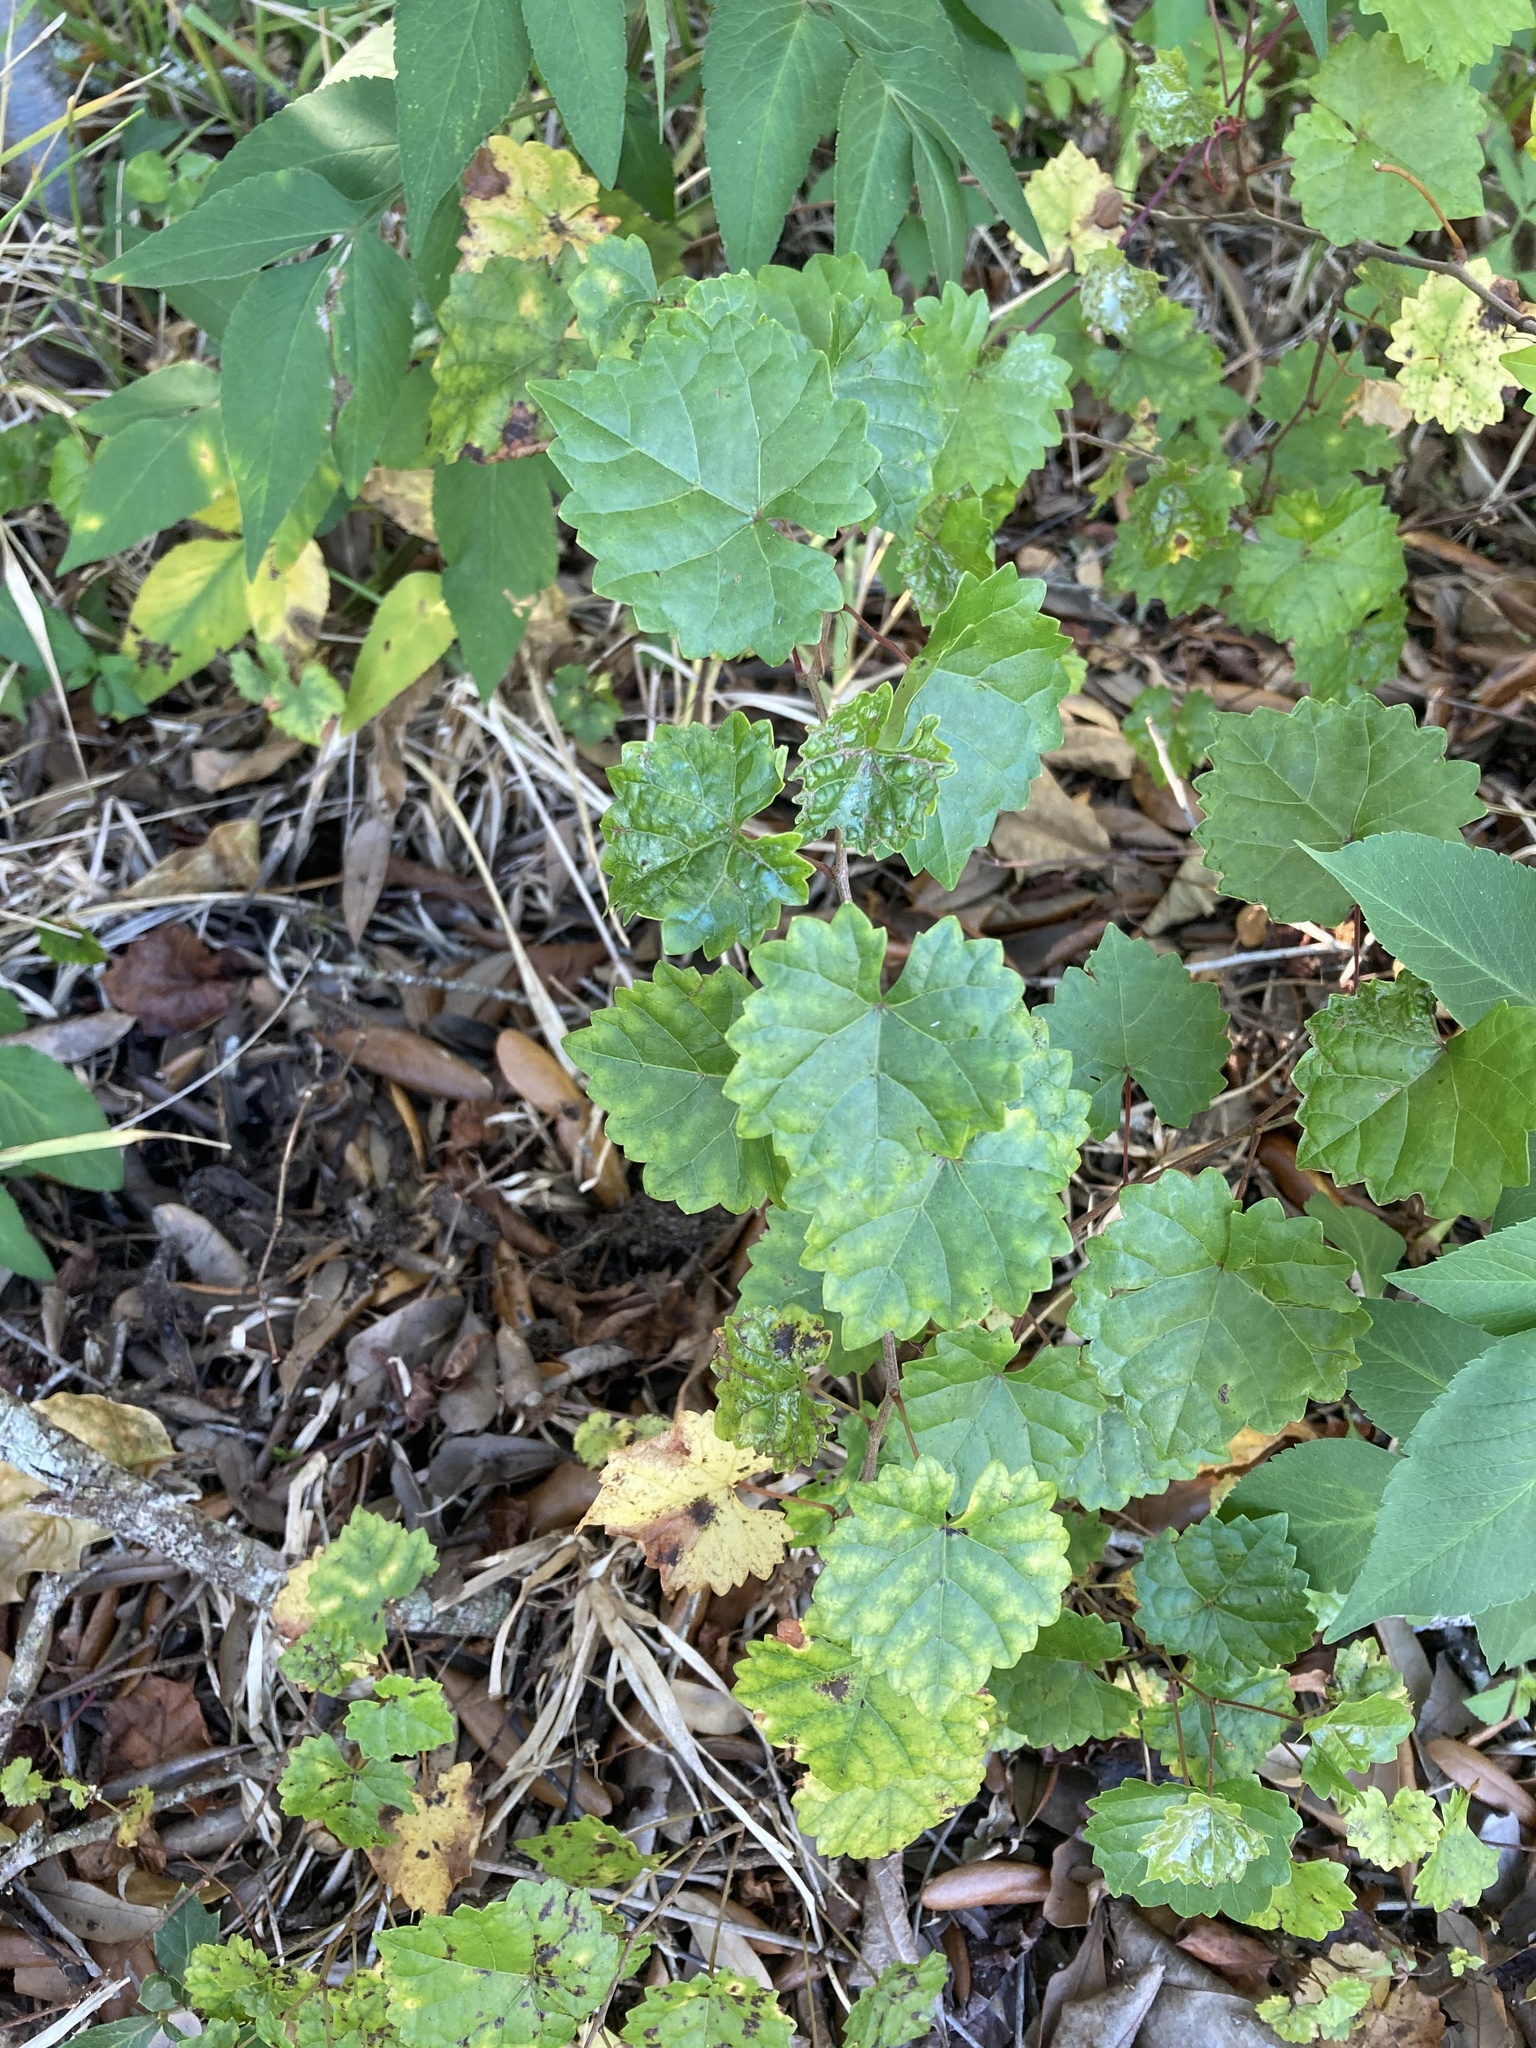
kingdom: Plantae
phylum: Tracheophyta
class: Magnoliopsida
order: Vitales
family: Vitaceae
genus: Vitis
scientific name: Vitis rotundifolia
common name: Muscadine grape
